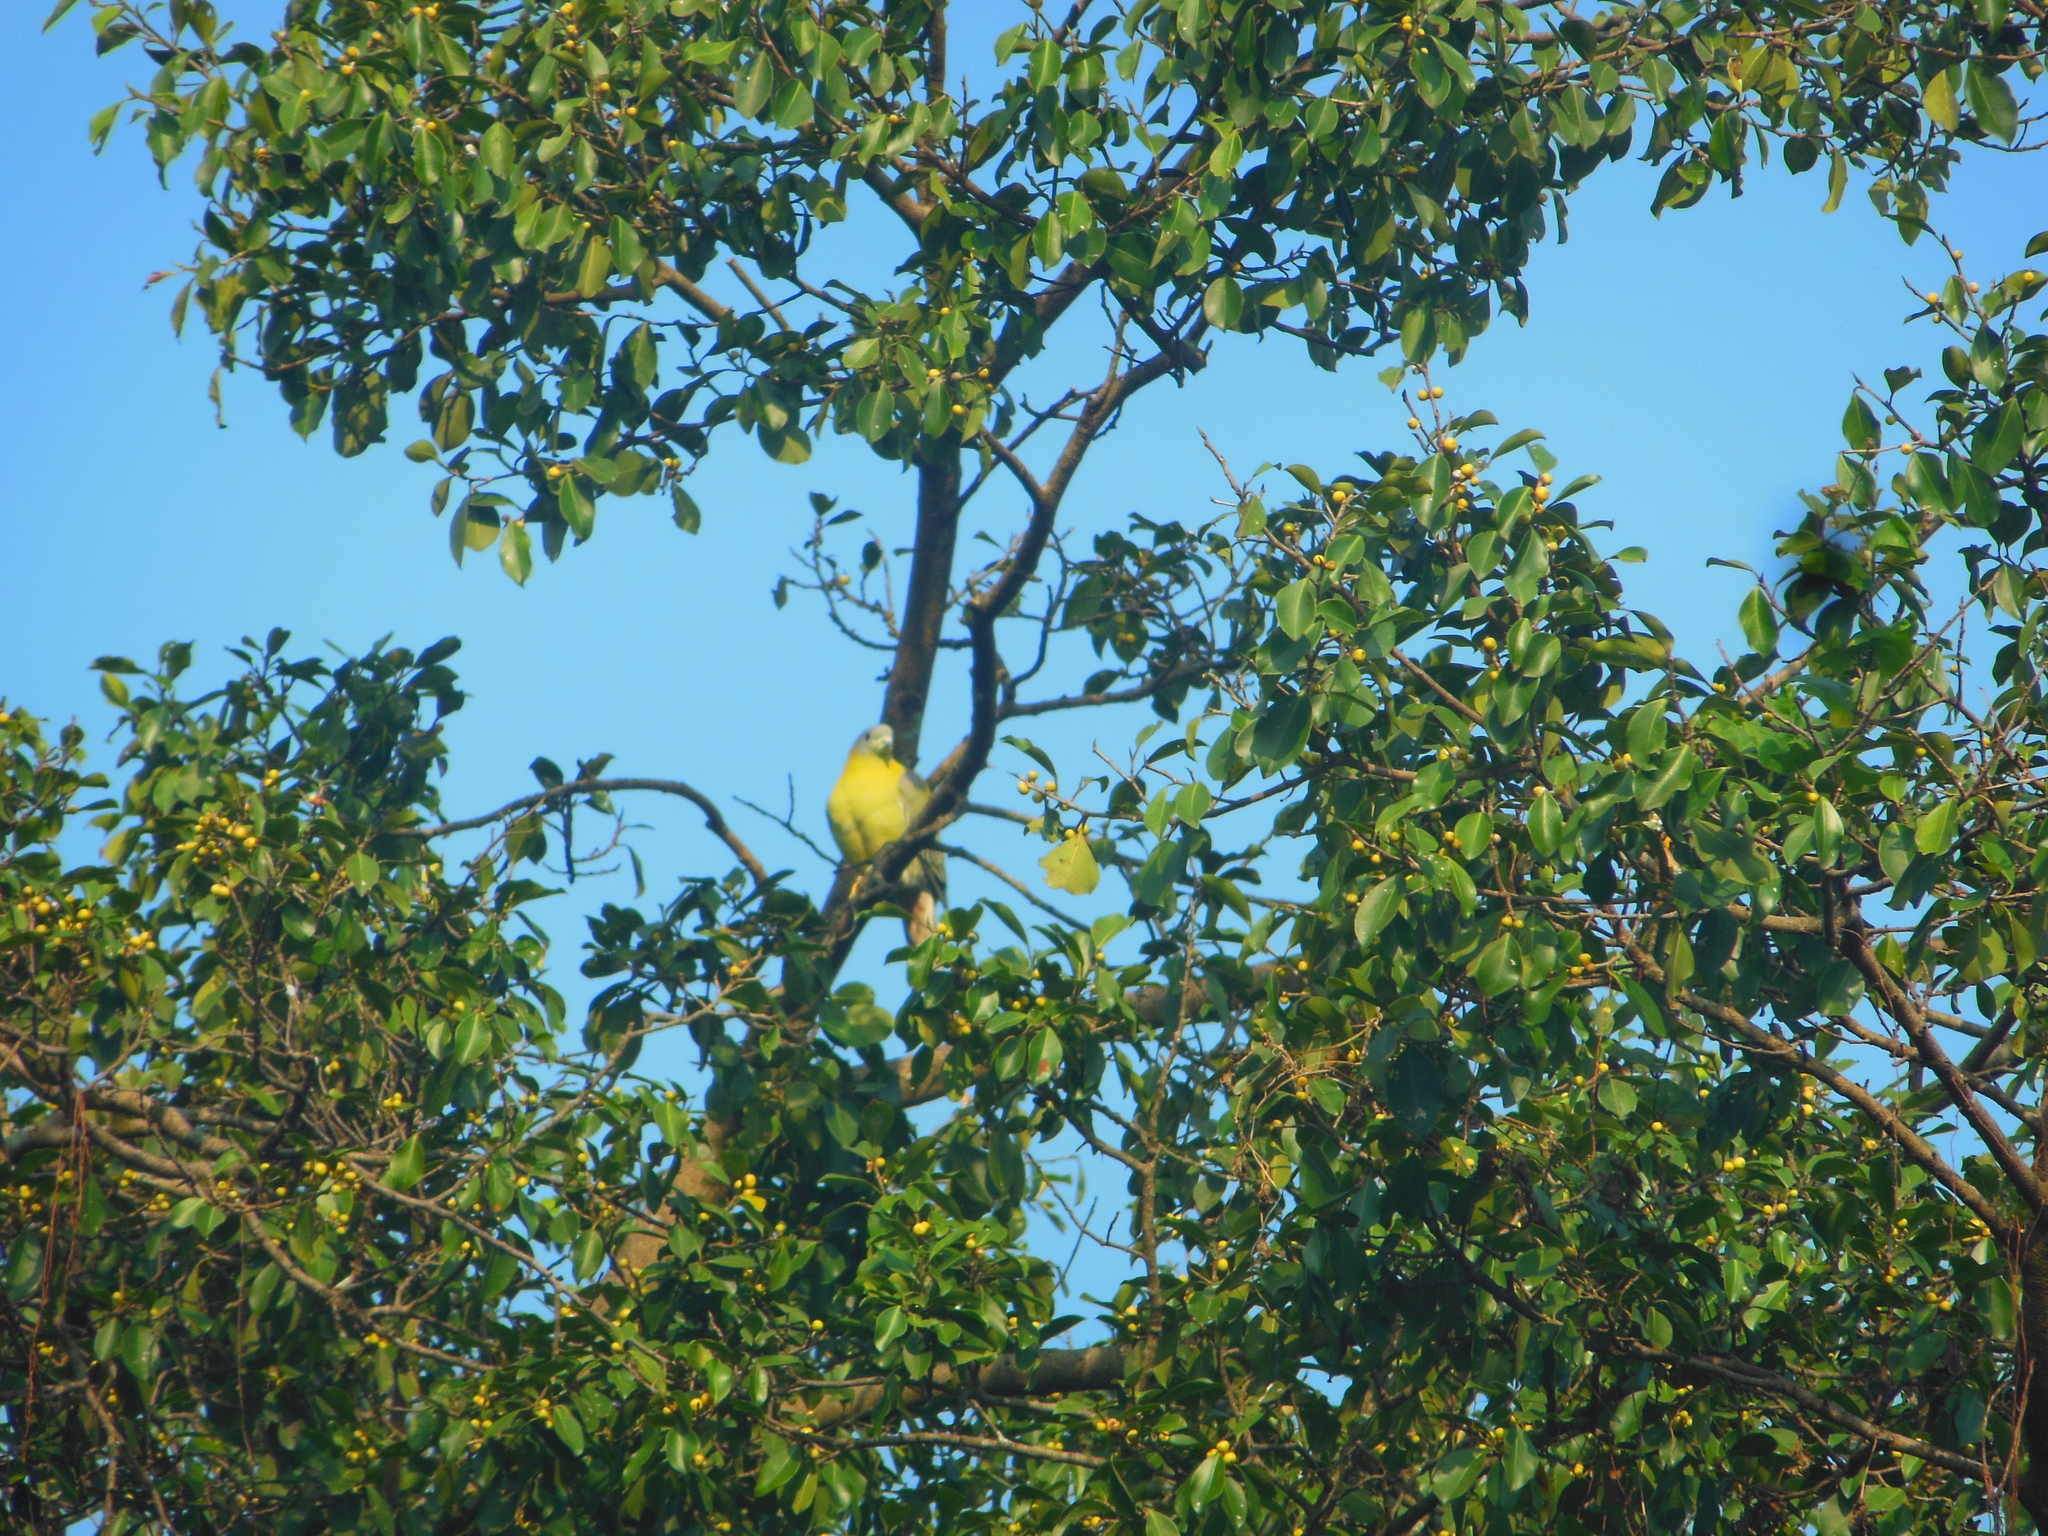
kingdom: Animalia
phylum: Chordata
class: Aves
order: Columbiformes
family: Columbidae
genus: Treron
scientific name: Treron phoenicopterus
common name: Yellow-footed green pigeon
